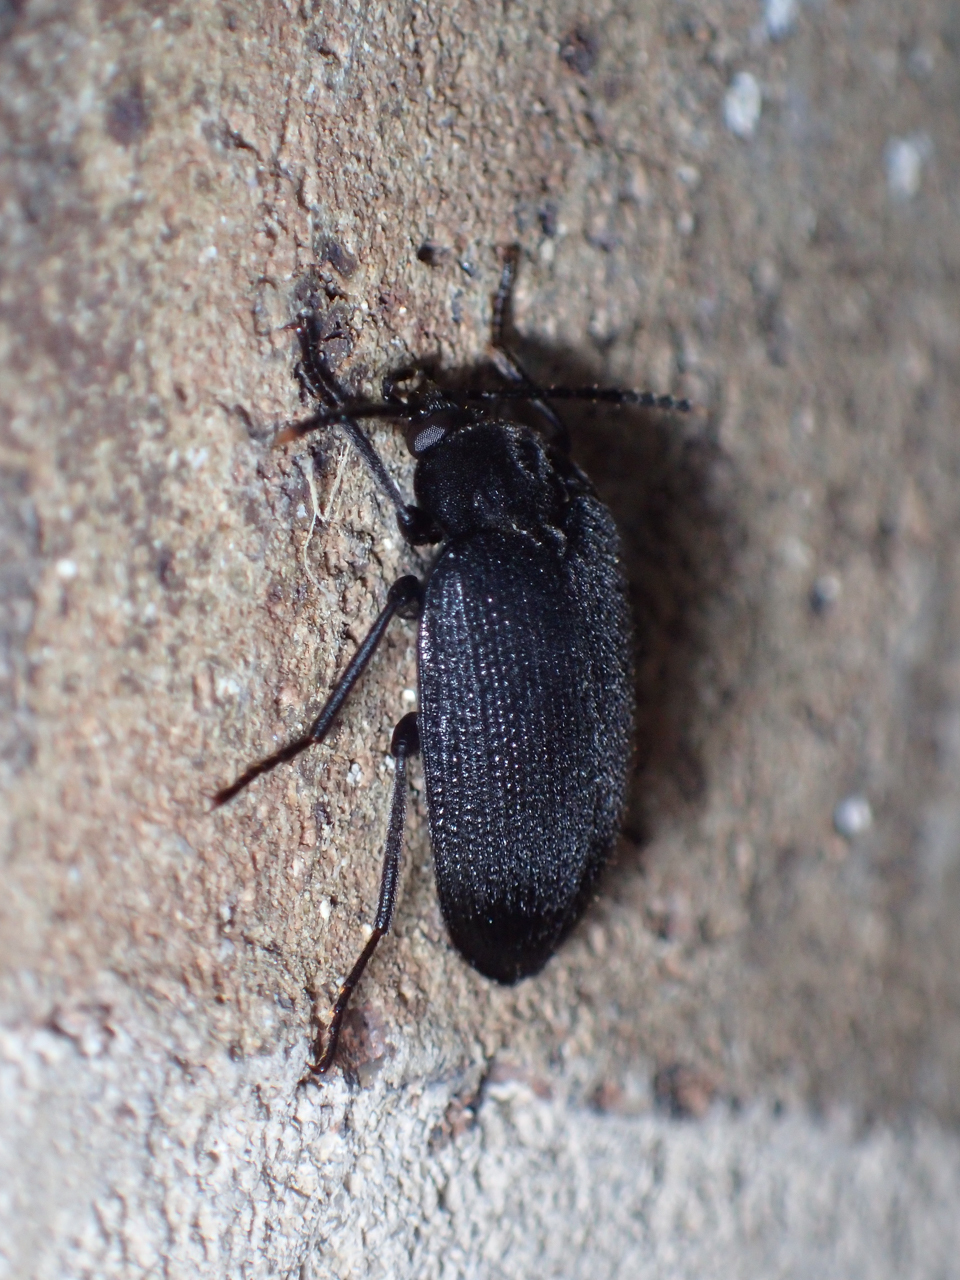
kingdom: Animalia
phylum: Arthropoda
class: Insecta
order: Coleoptera
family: Tetratomidae
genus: Penthe
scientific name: Penthe pimelia
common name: Velvety bark beetle
